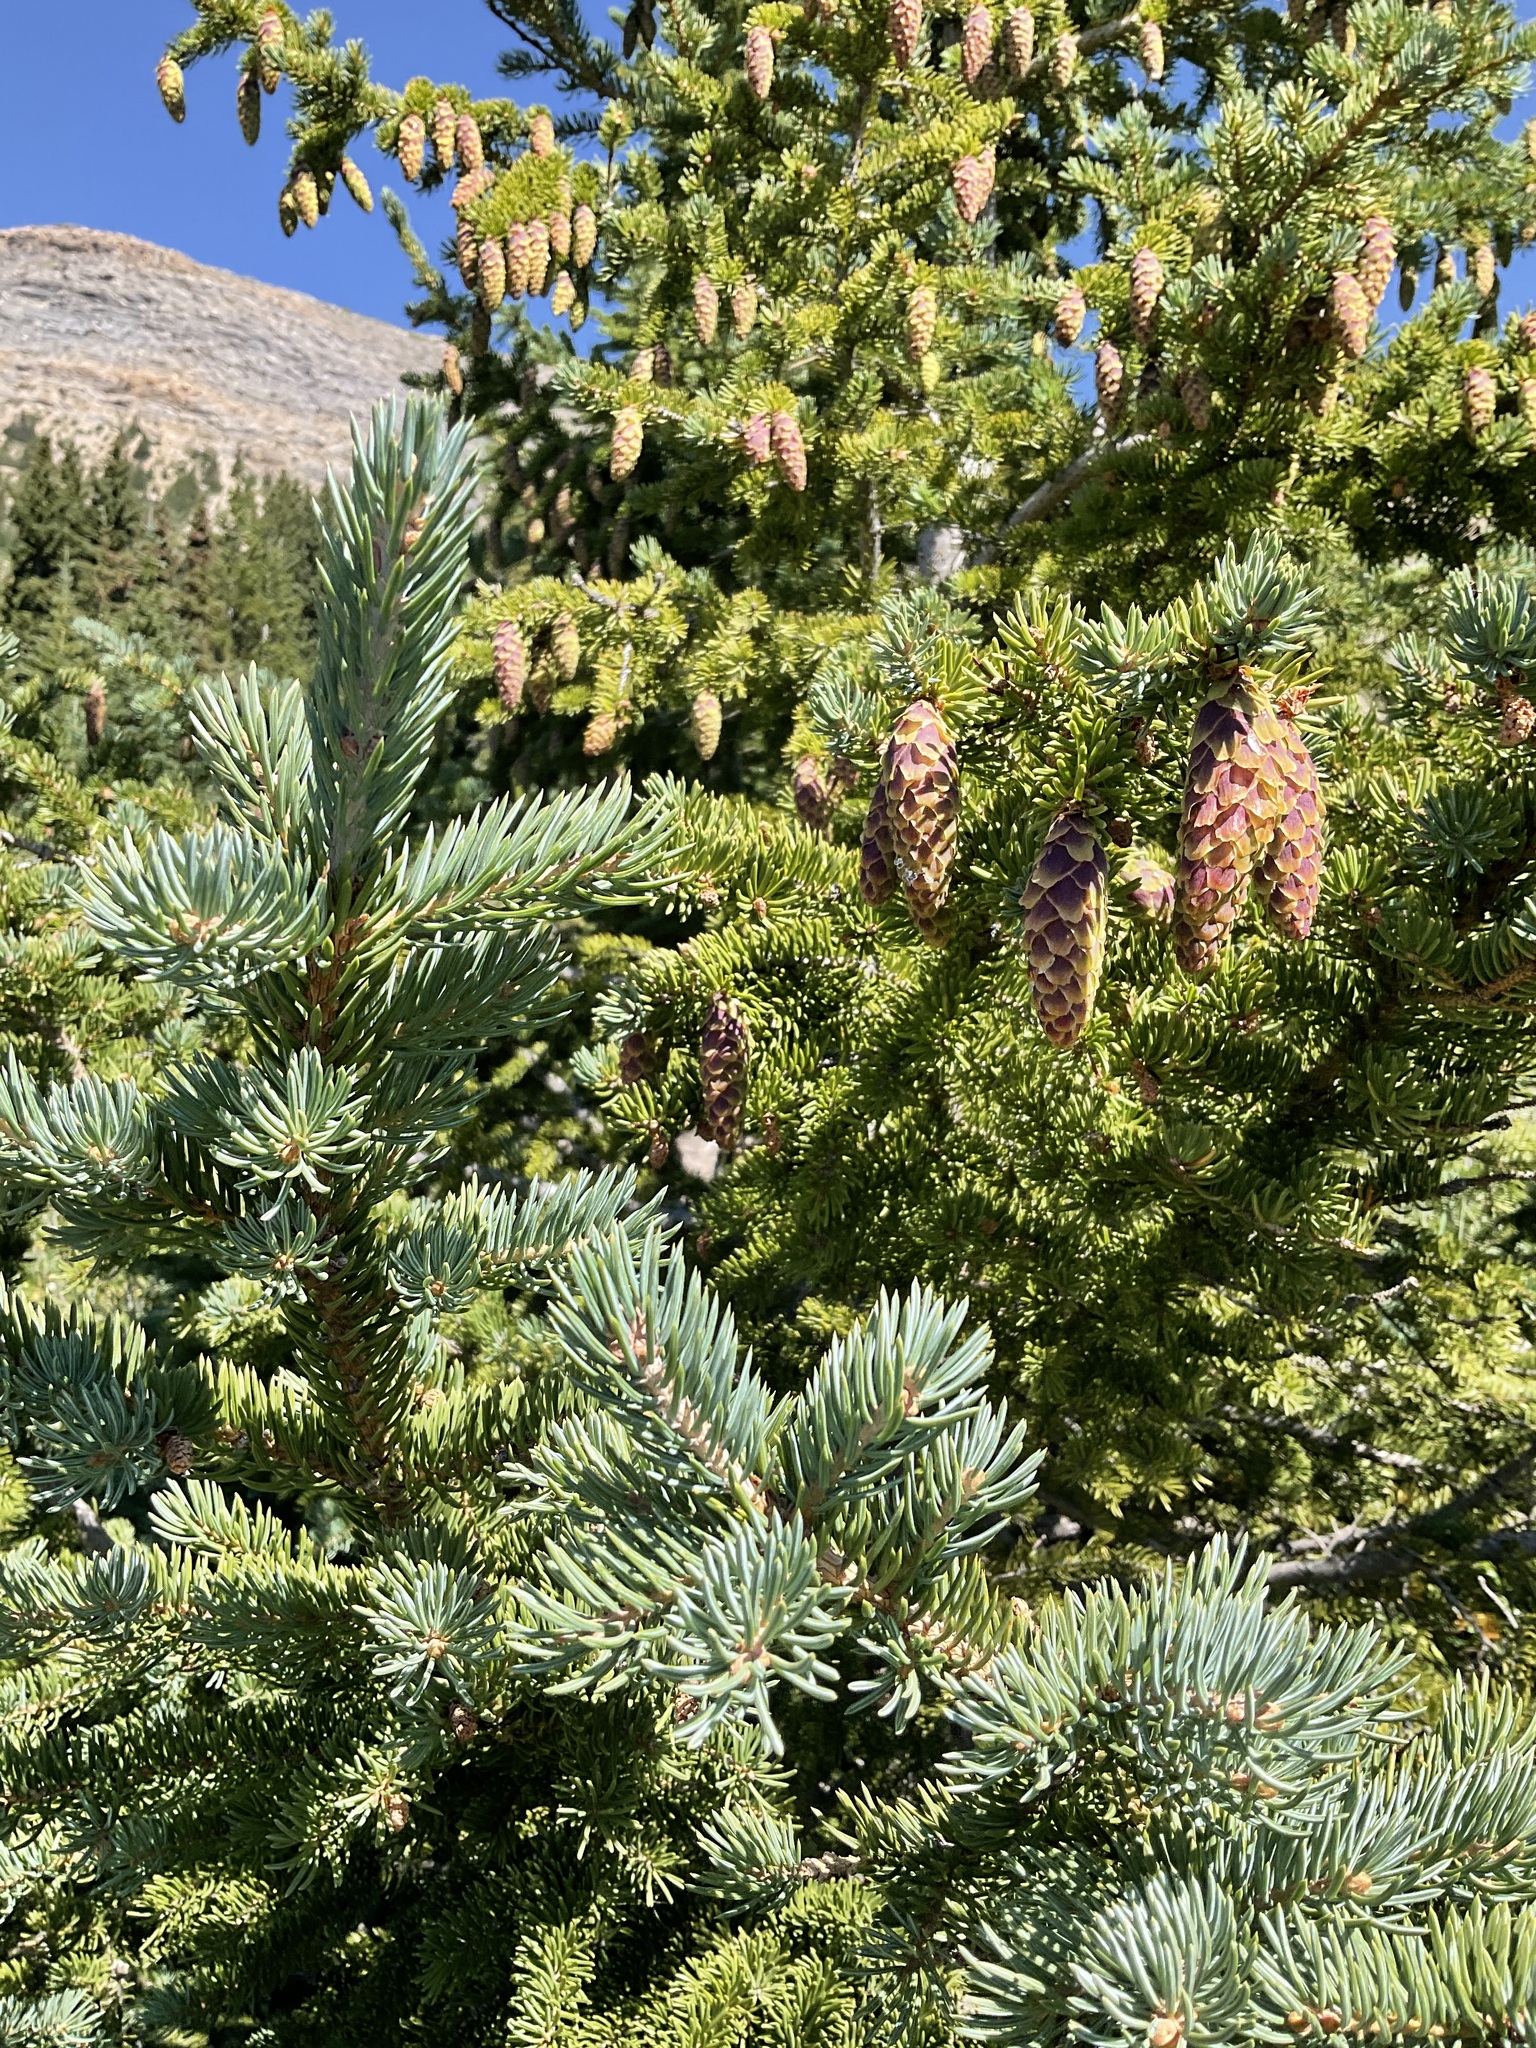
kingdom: Plantae
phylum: Tracheophyta
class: Pinopsida
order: Pinales
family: Pinaceae
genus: Picea
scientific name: Picea engelmannii
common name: Engelmann spruce
